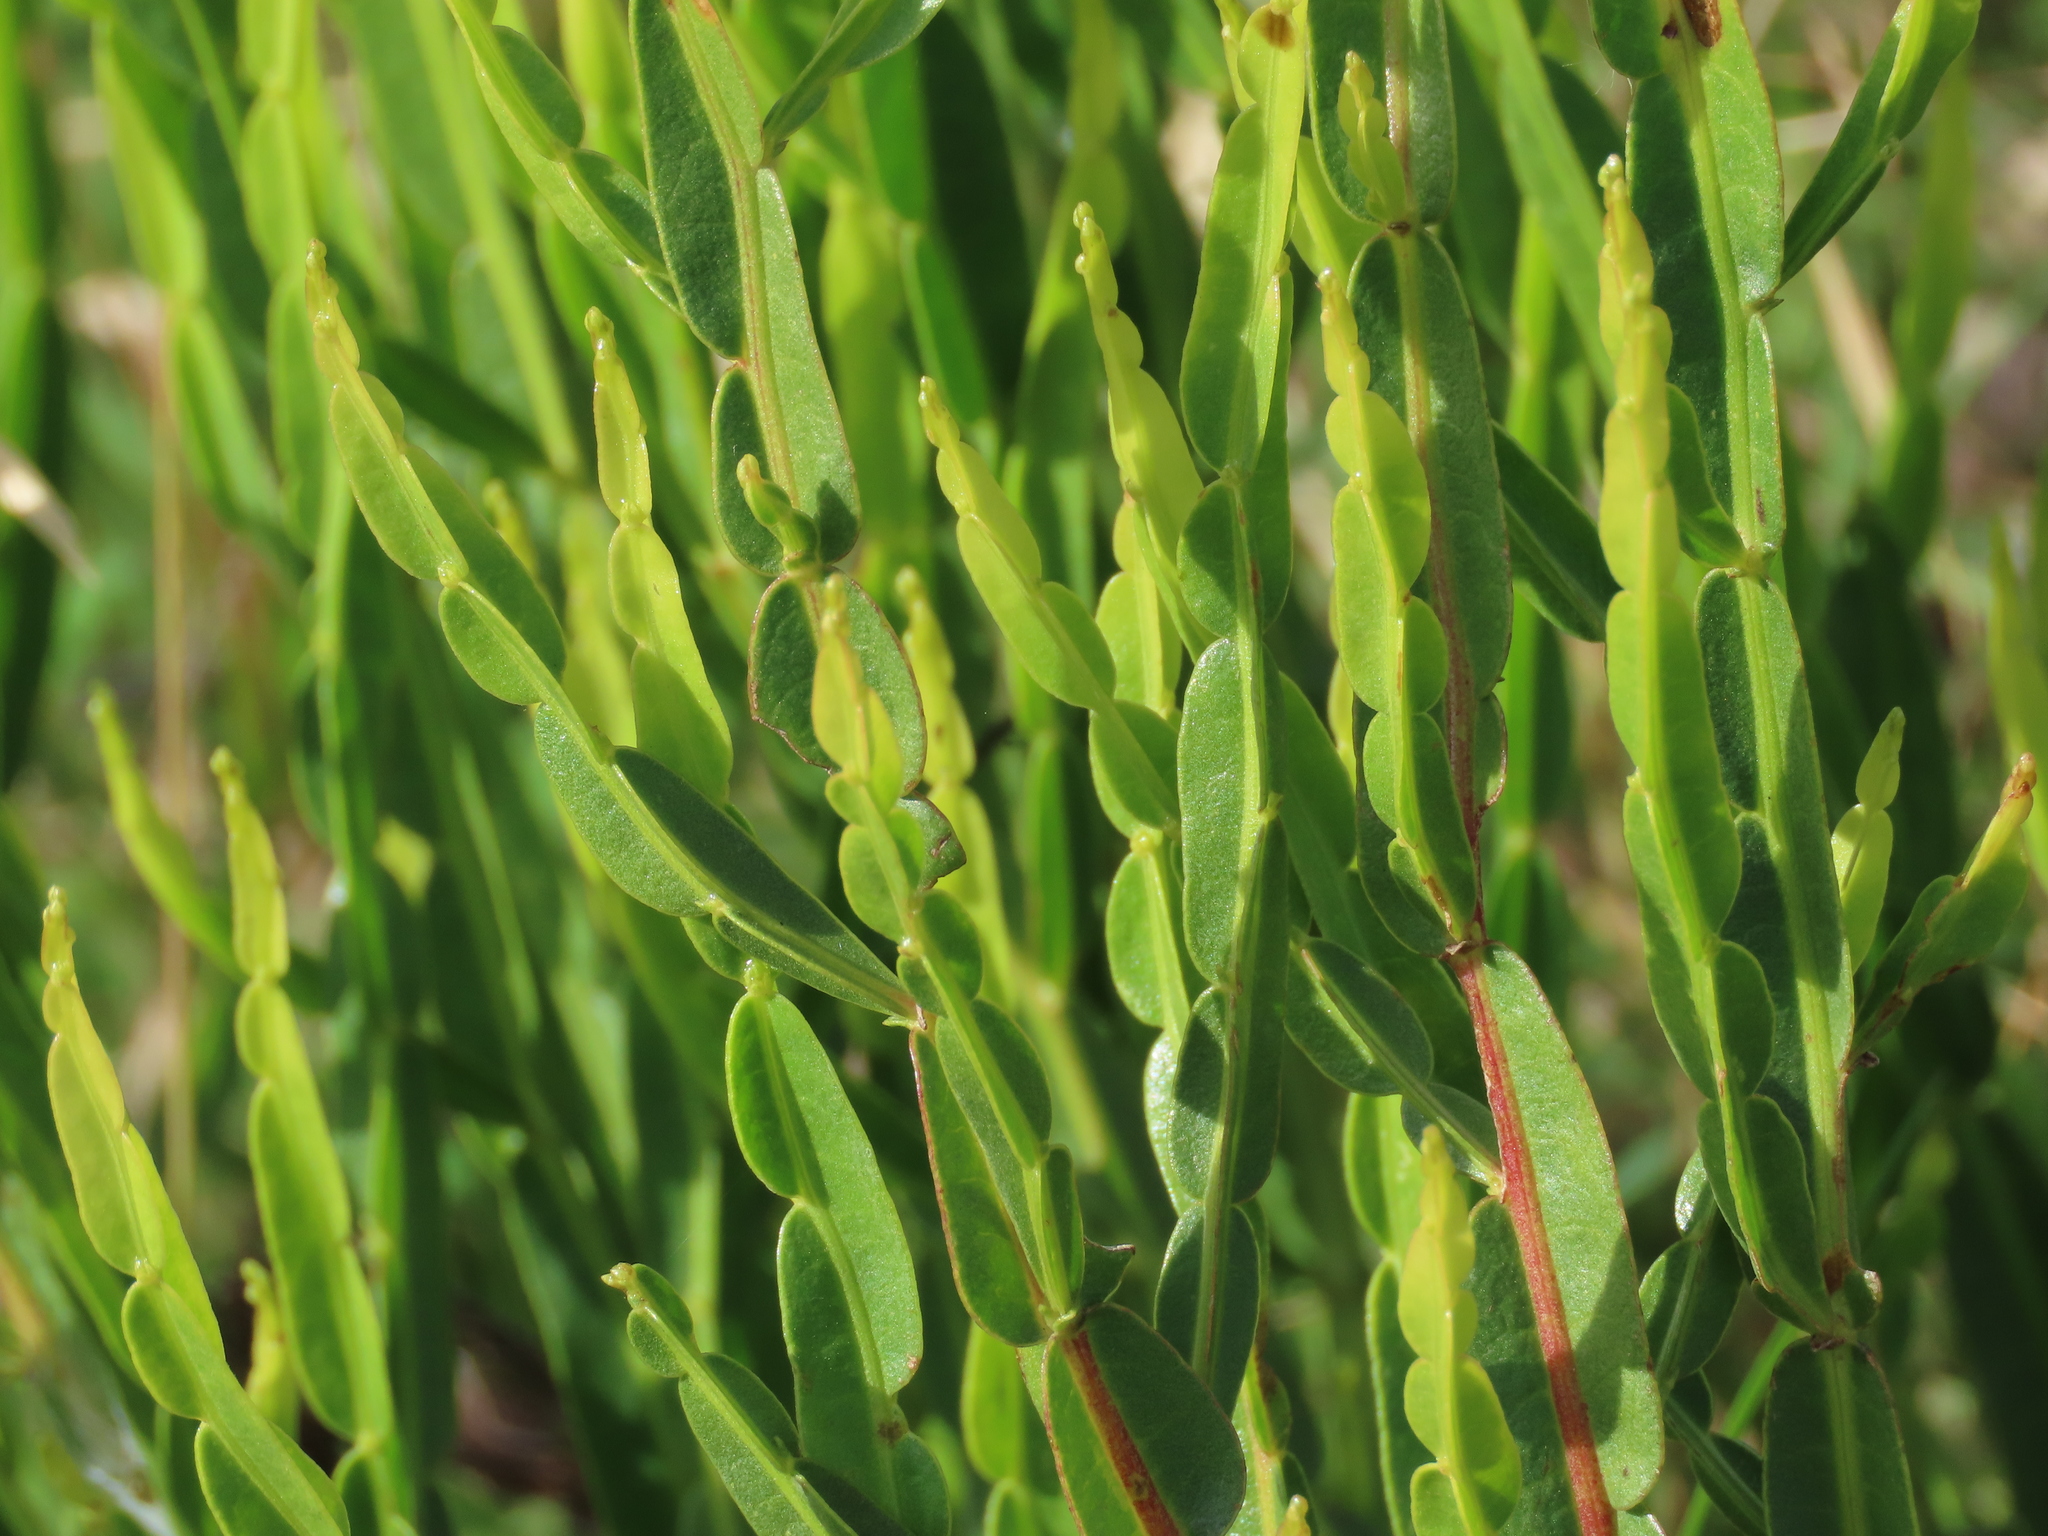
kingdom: Plantae
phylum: Tracheophyta
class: Magnoliopsida
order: Asterales
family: Asteraceae
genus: Baccharis
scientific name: Baccharis trimera
